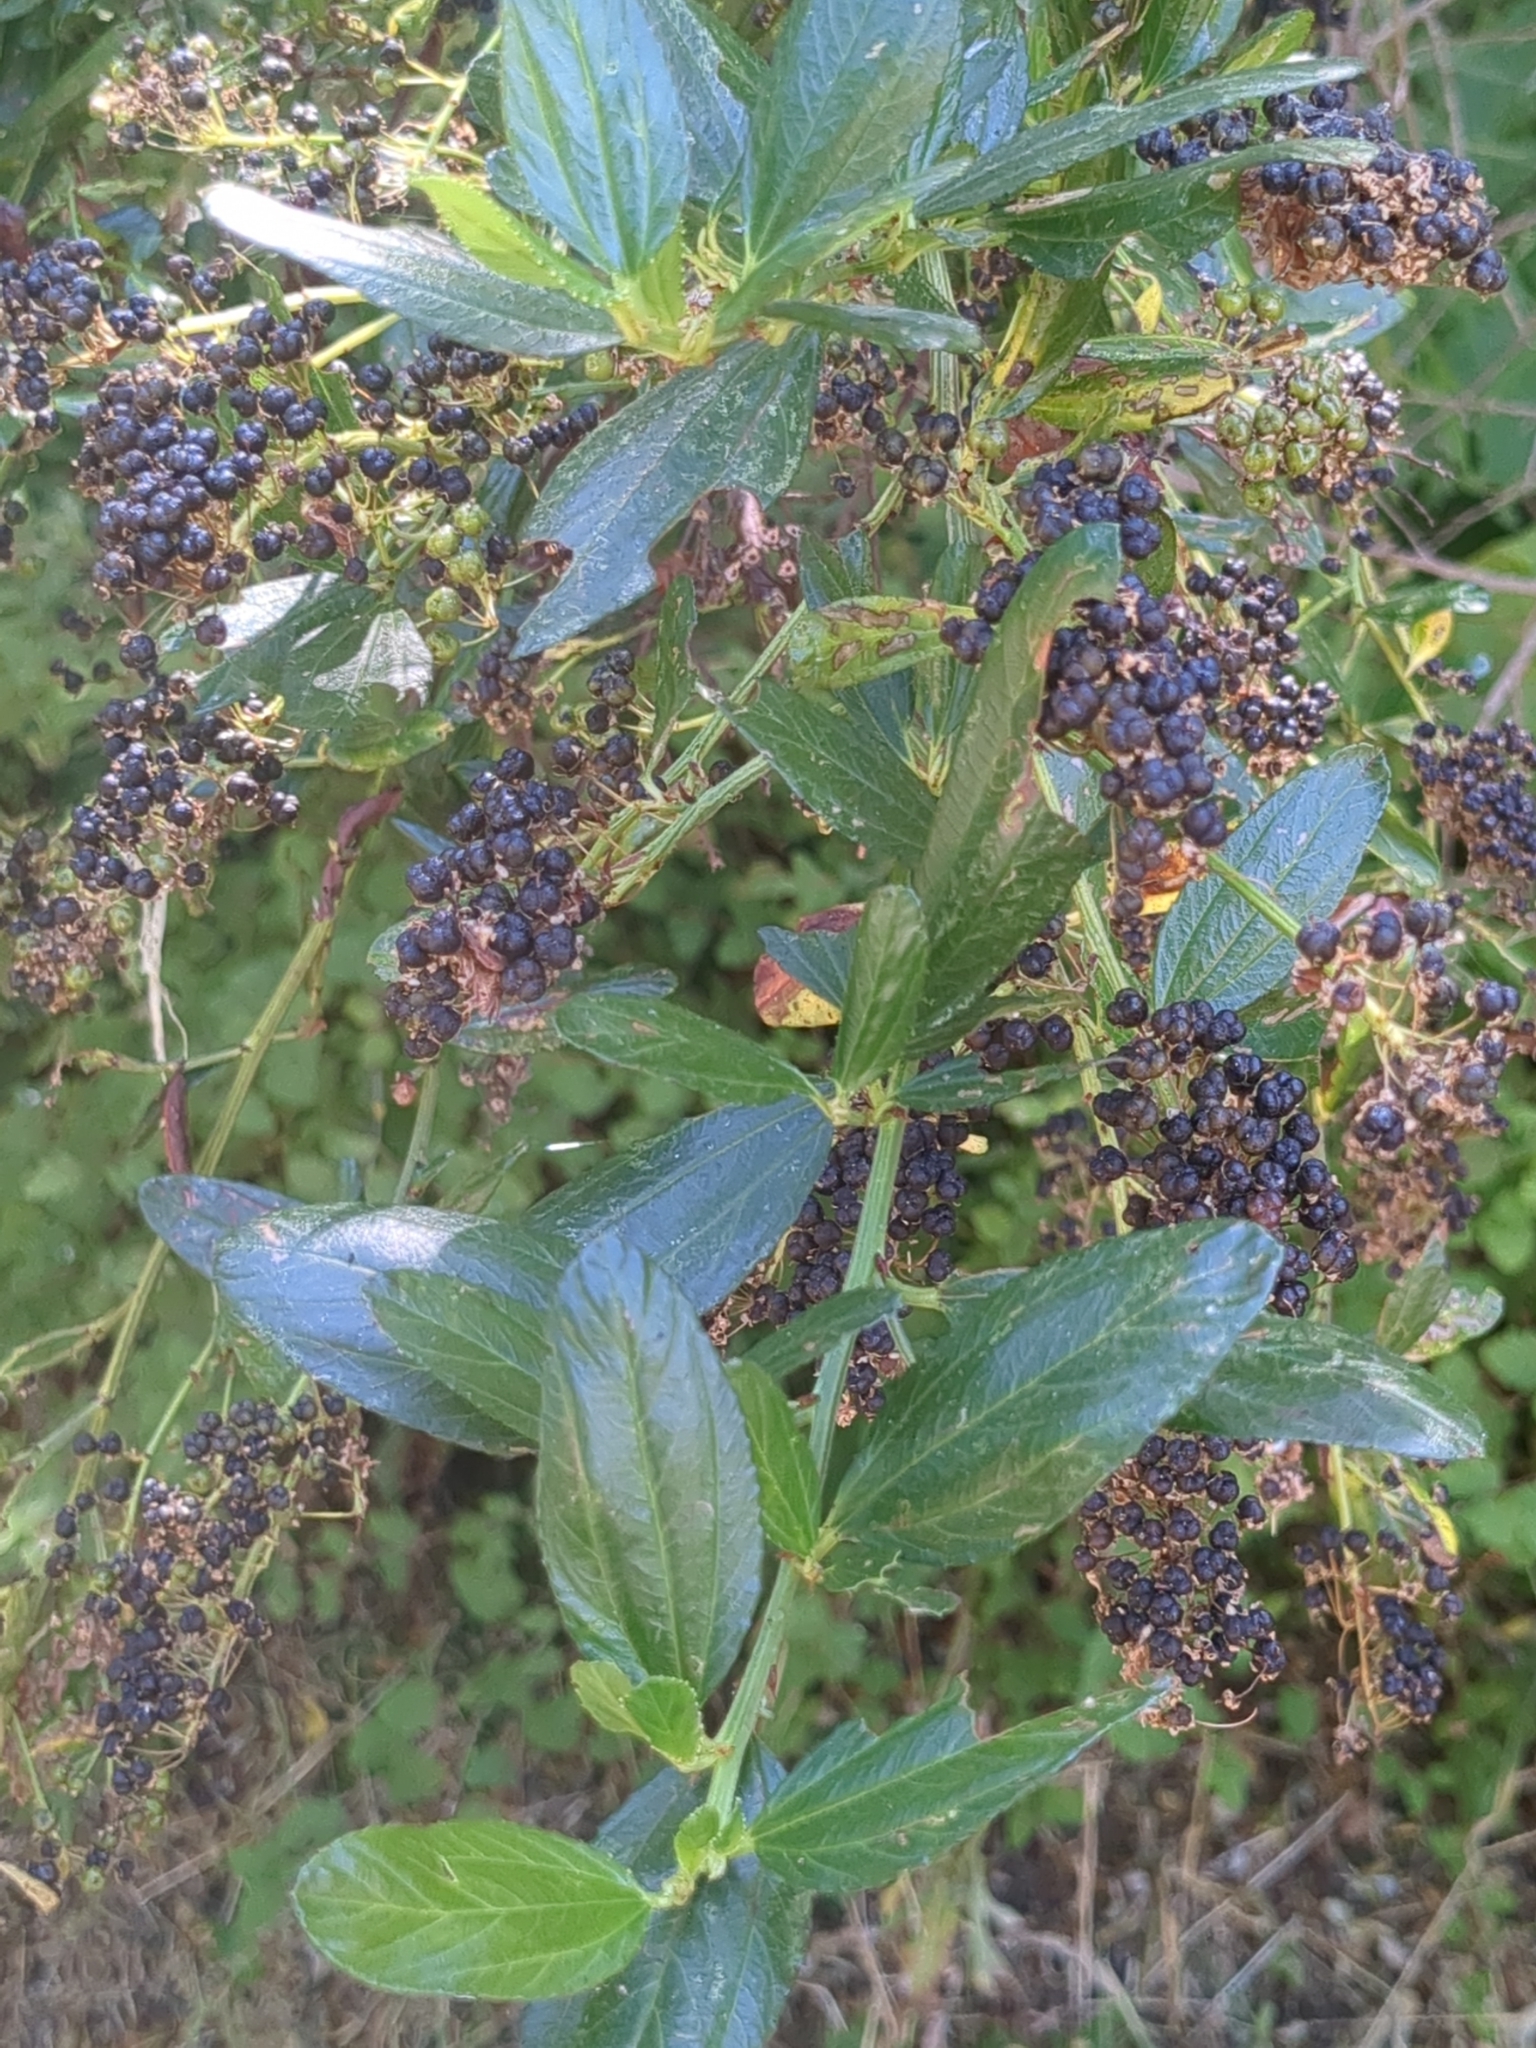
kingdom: Plantae
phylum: Tracheophyta
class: Magnoliopsida
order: Rosales
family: Rhamnaceae
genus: Ceanothus
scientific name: Ceanothus thyrsiflorus
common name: California-lilac
